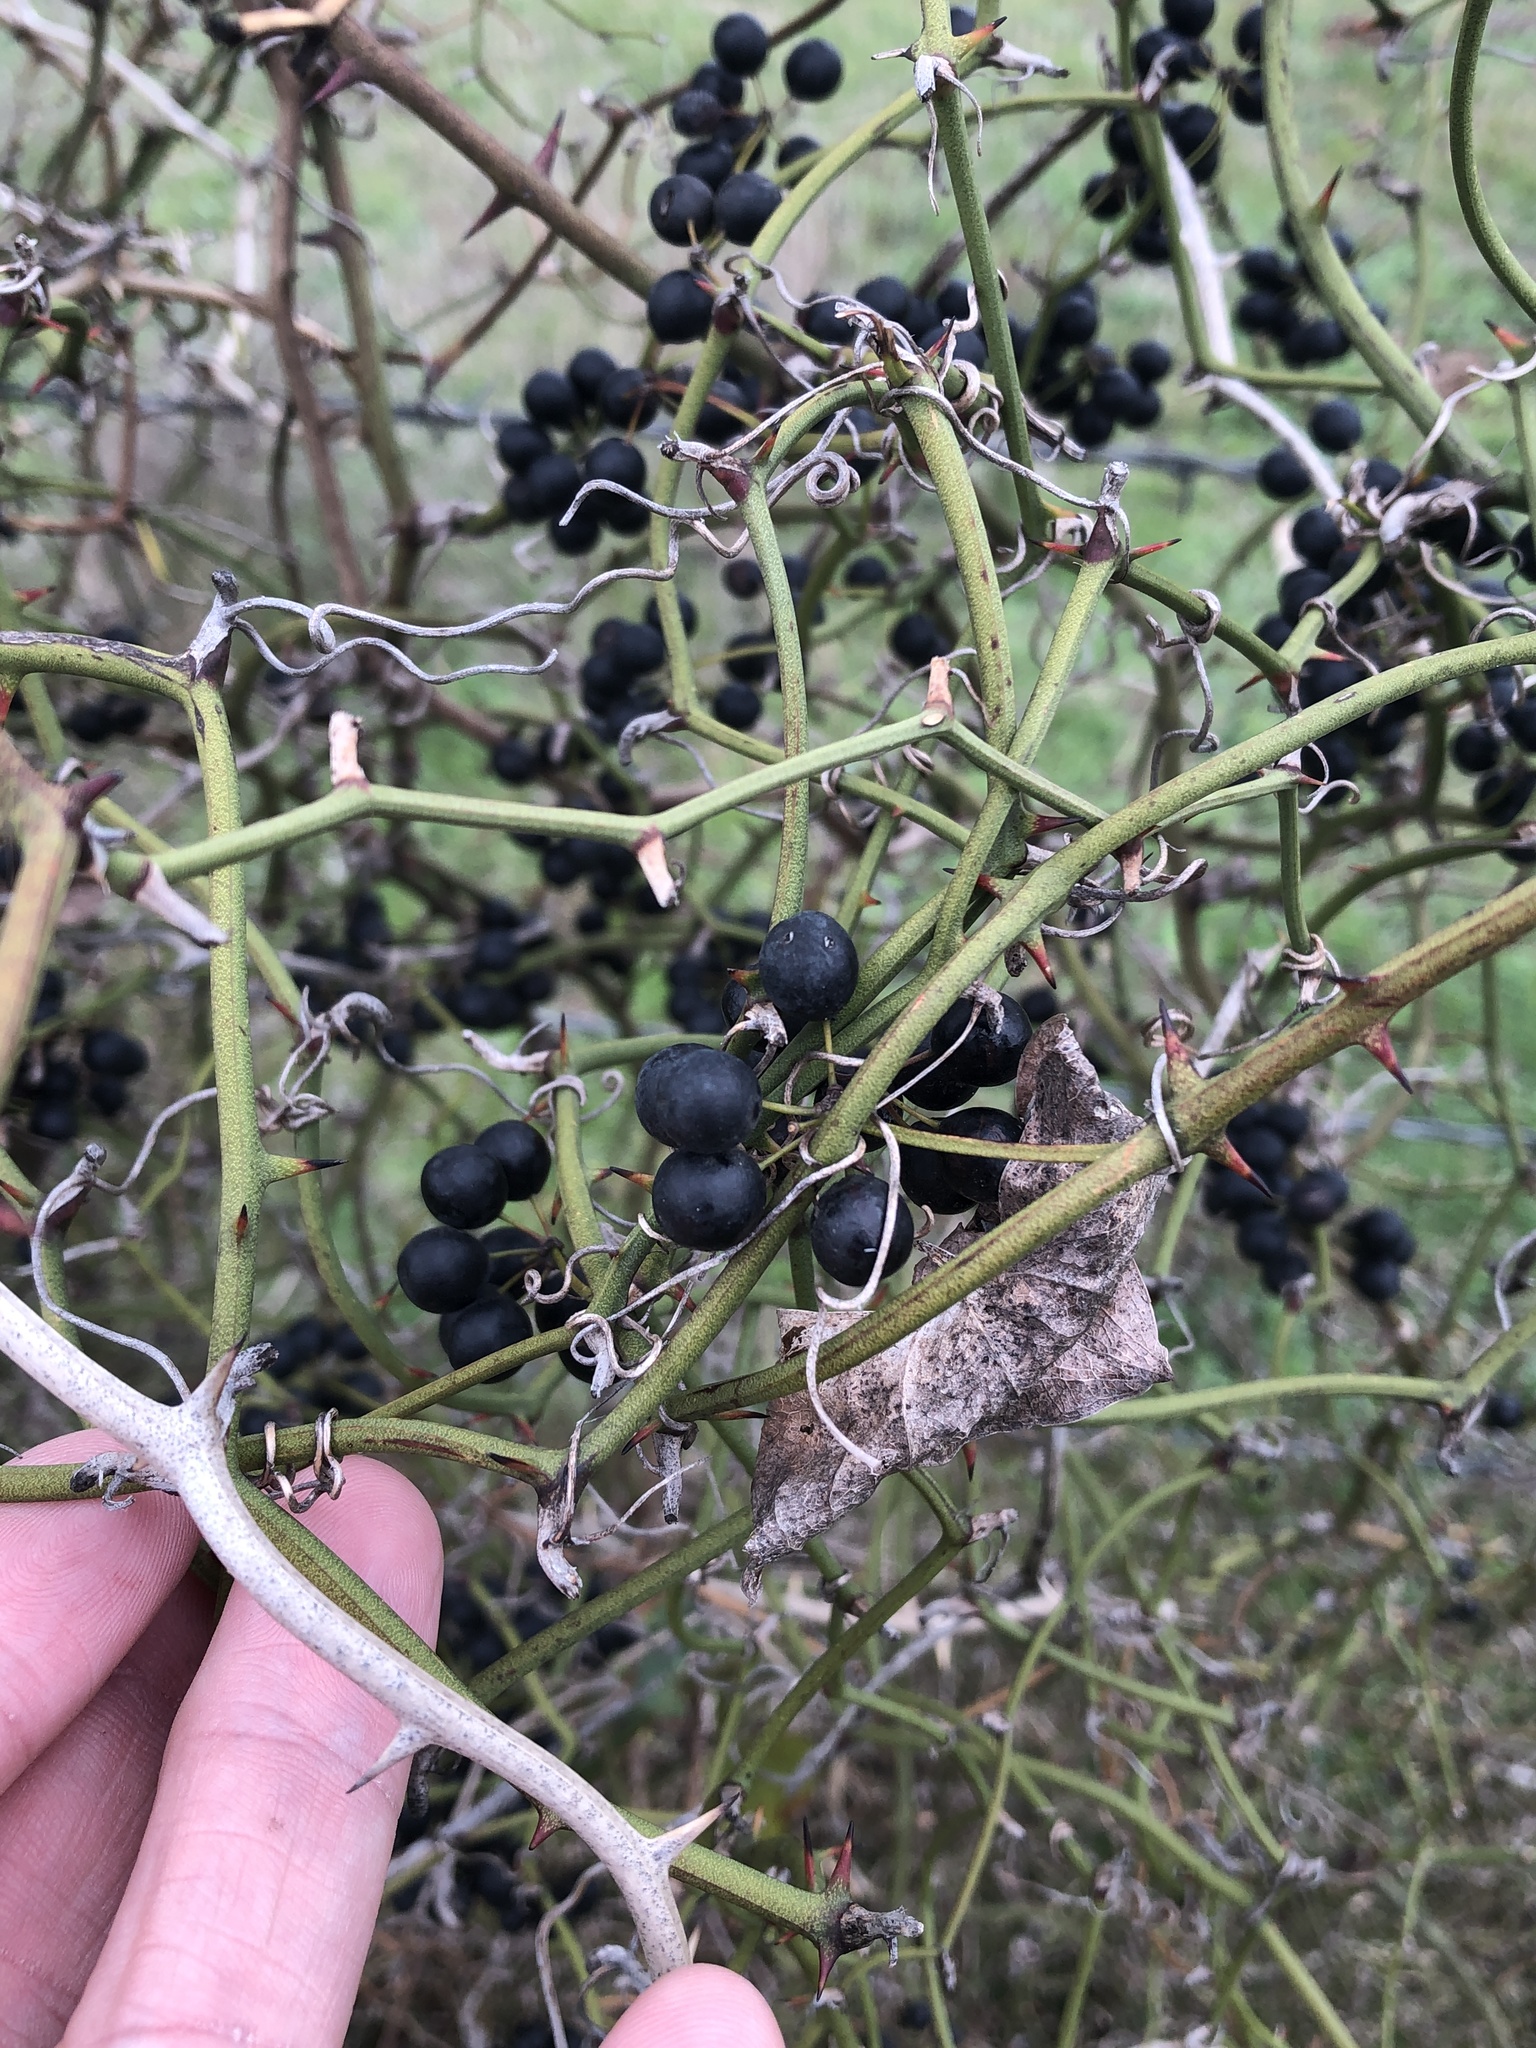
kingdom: Plantae
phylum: Tracheophyta
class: Liliopsida
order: Liliales
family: Smilacaceae
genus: Smilax
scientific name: Smilax bona-nox
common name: Catbrier
